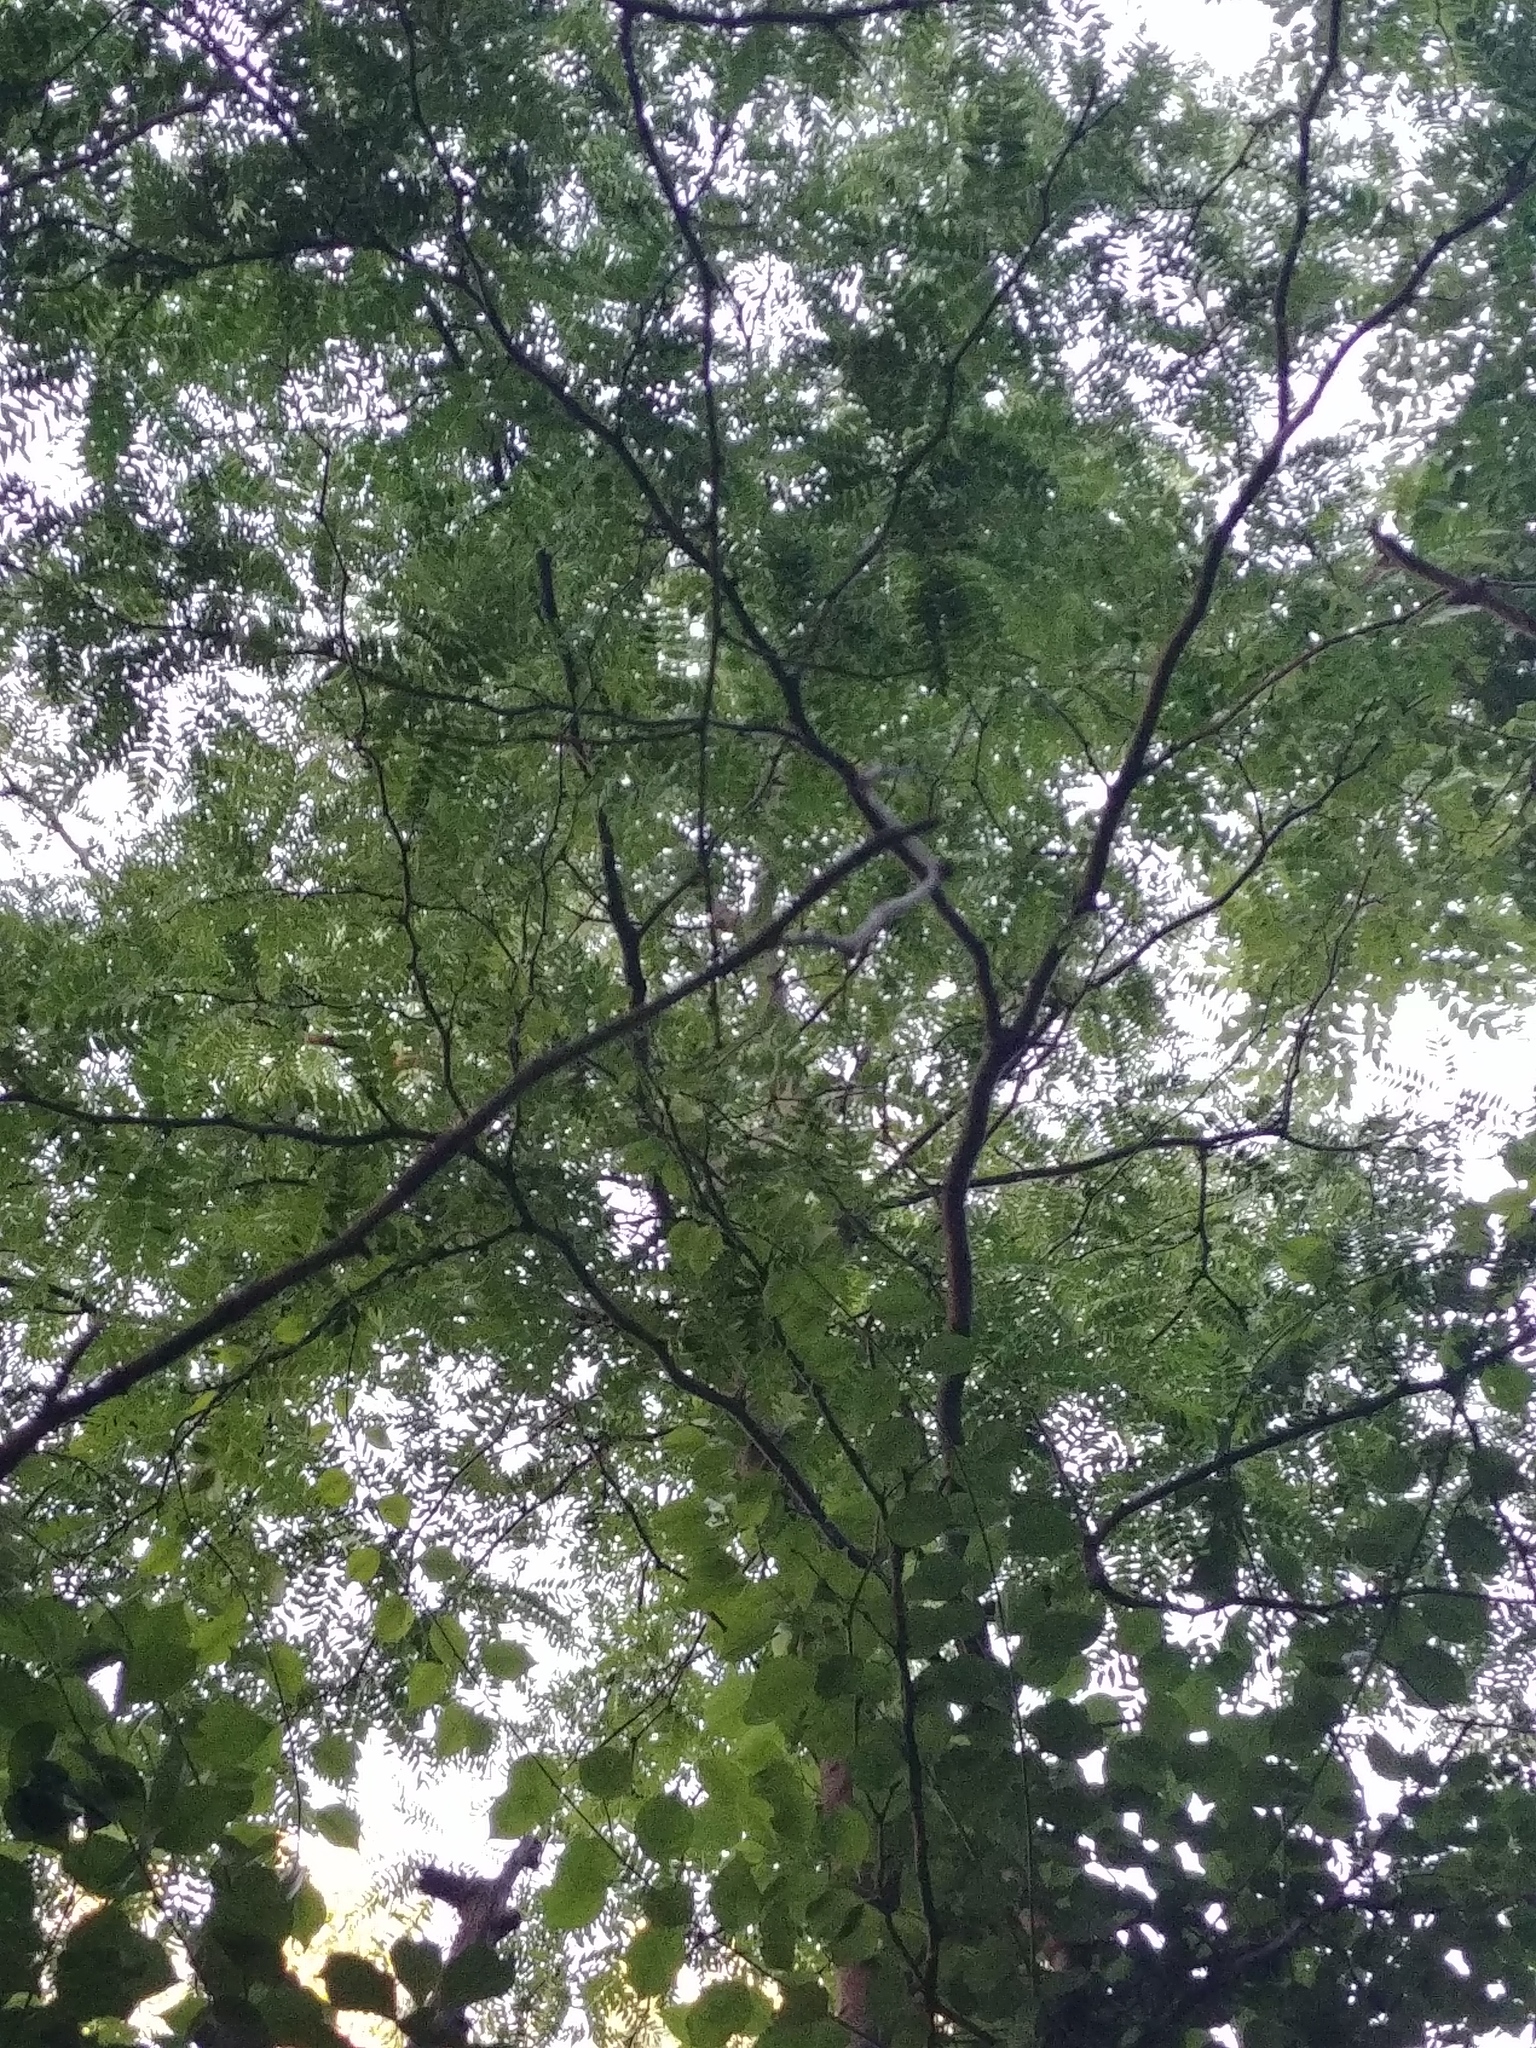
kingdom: Plantae
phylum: Tracheophyta
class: Magnoliopsida
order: Fabales
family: Fabaceae
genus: Gleditsia
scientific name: Gleditsia triacanthos
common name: Common honeylocust
